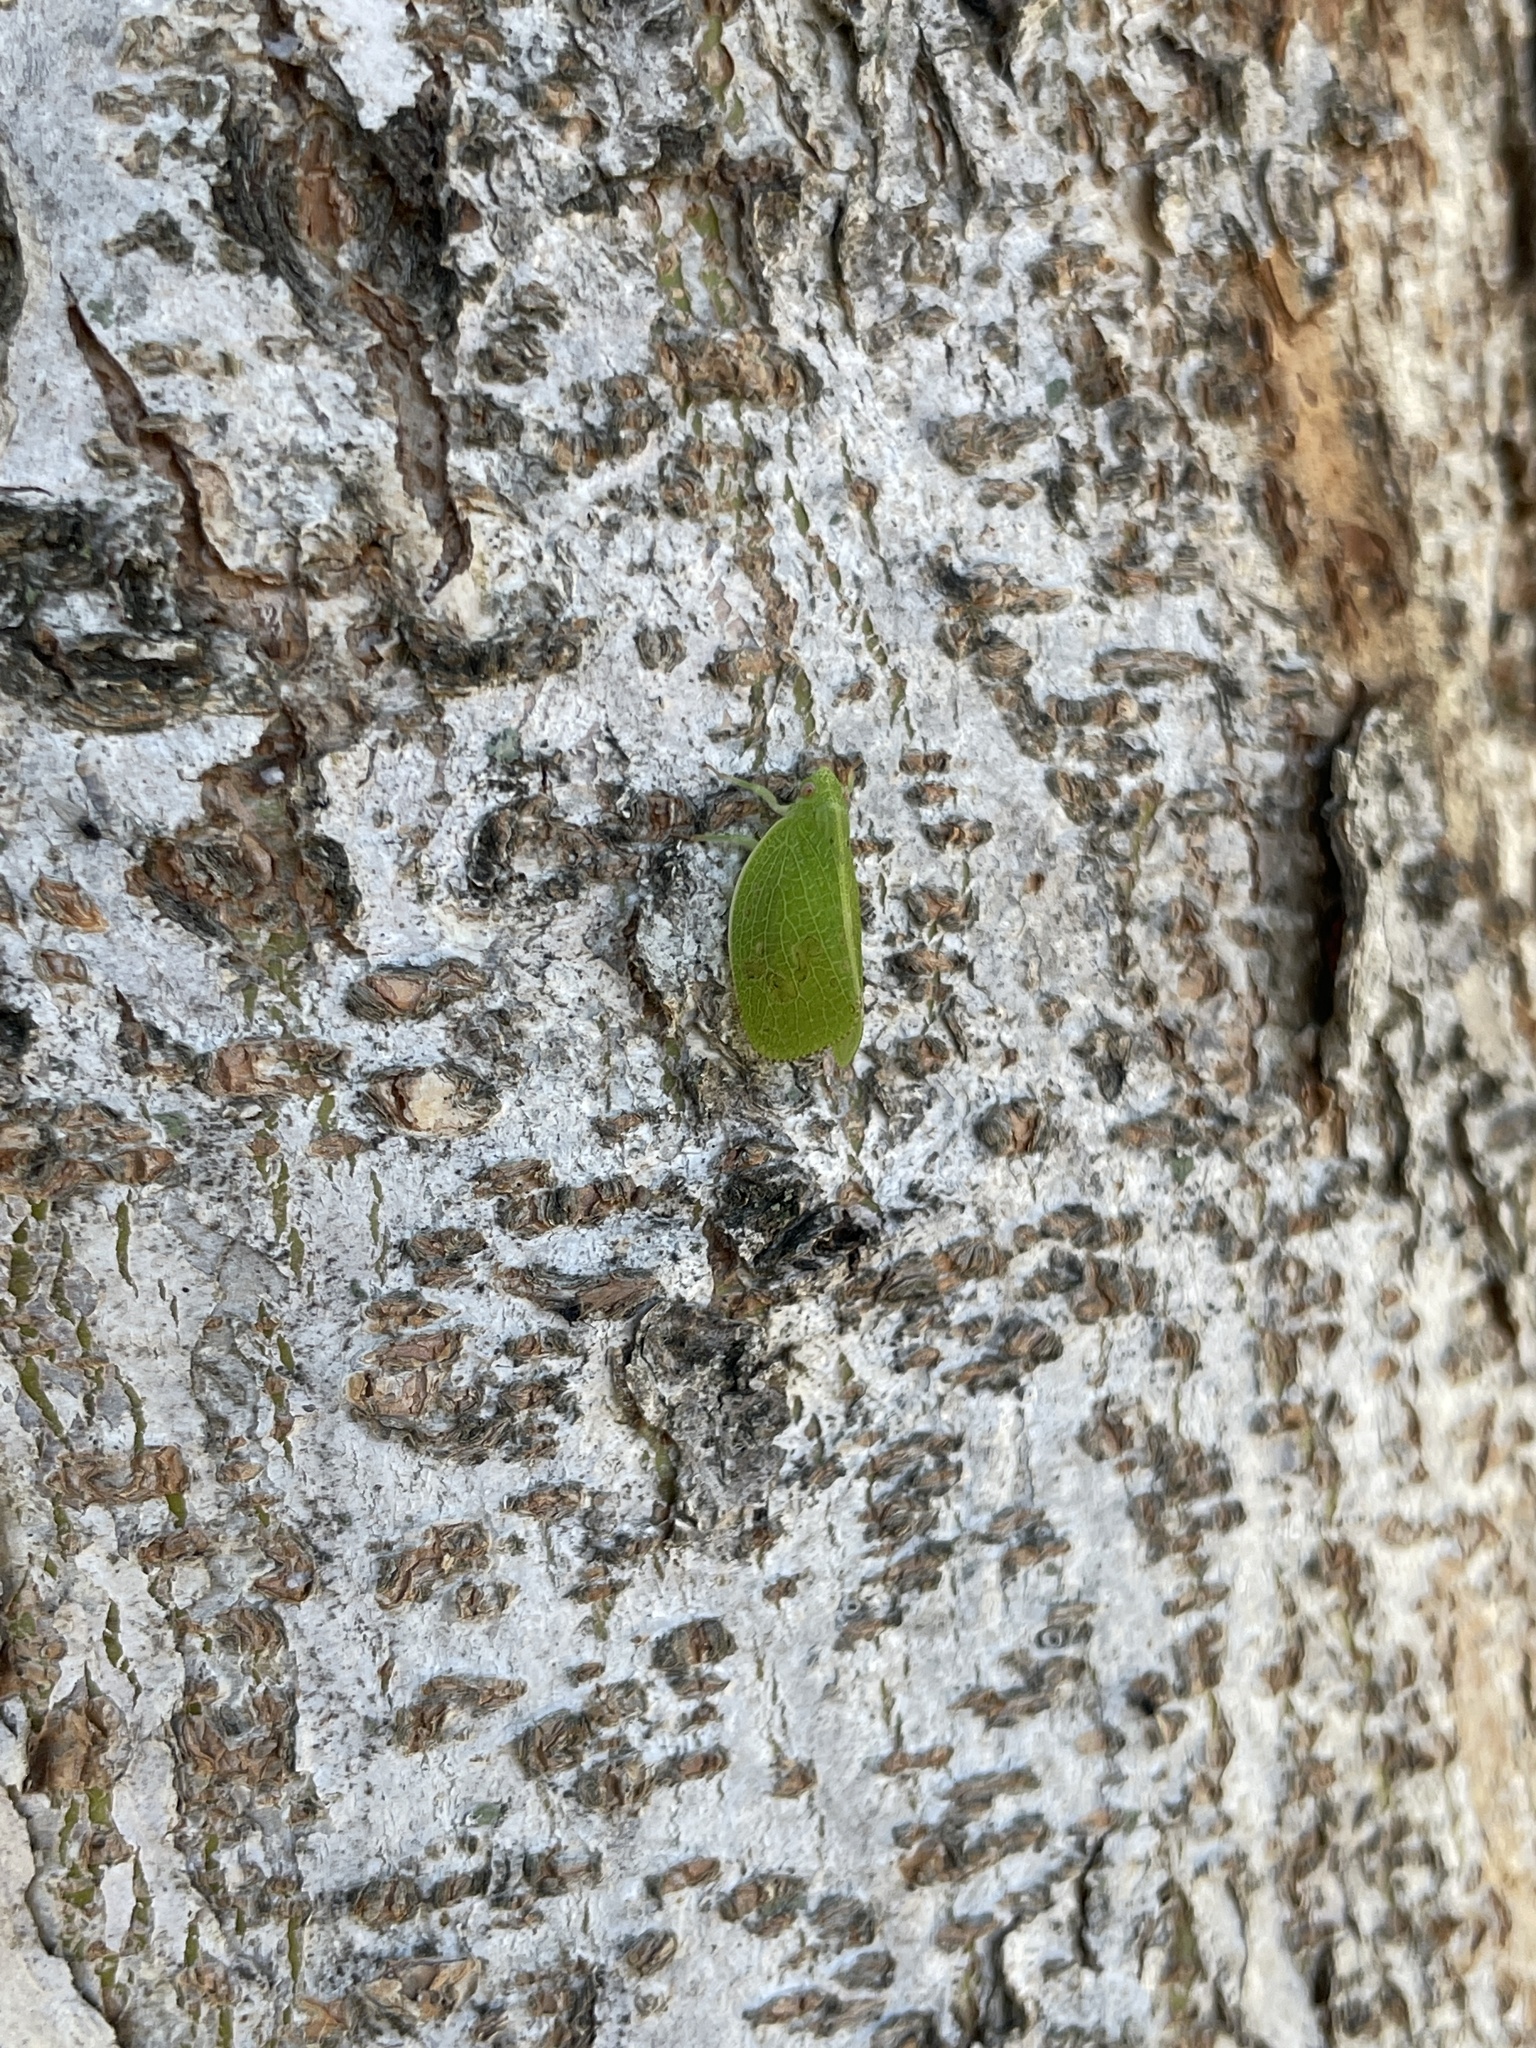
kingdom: Animalia
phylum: Arthropoda
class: Insecta
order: Hemiptera
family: Acanaloniidae
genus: Acanalonia
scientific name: Acanalonia conica
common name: Green cone-headed planthopper
